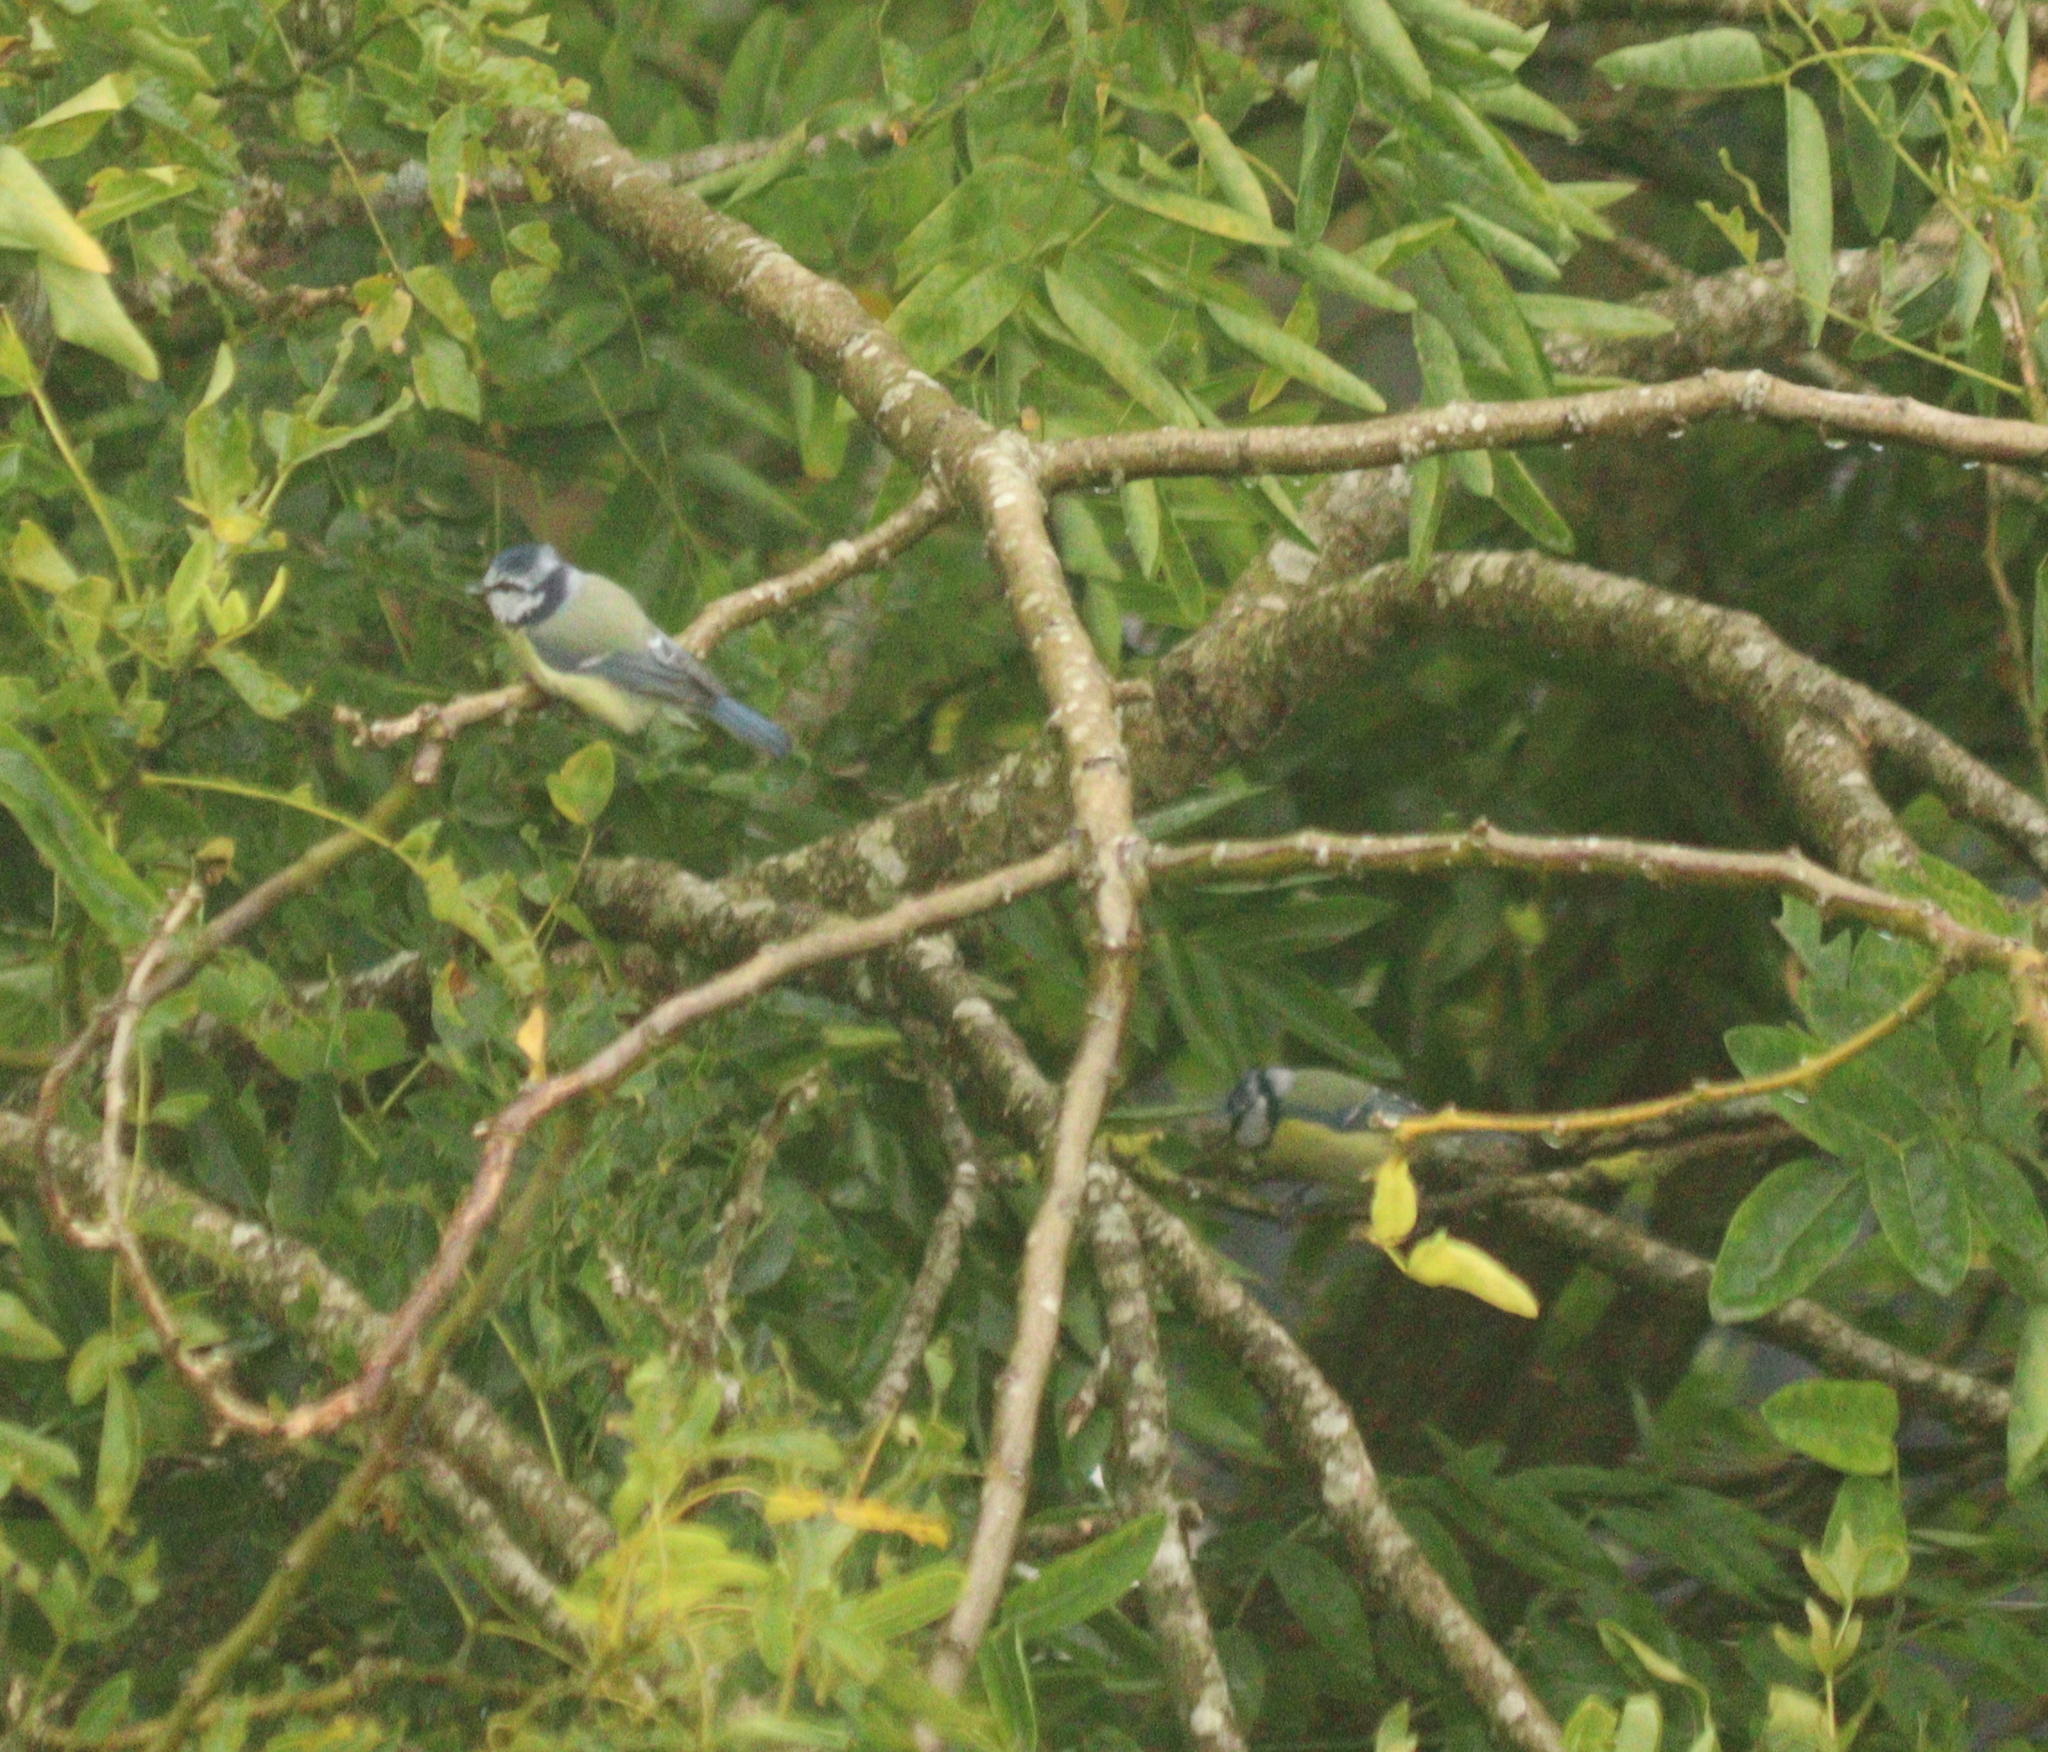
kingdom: Animalia
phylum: Chordata
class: Aves
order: Passeriformes
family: Paridae
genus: Cyanistes
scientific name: Cyanistes caeruleus
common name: Eurasian blue tit
